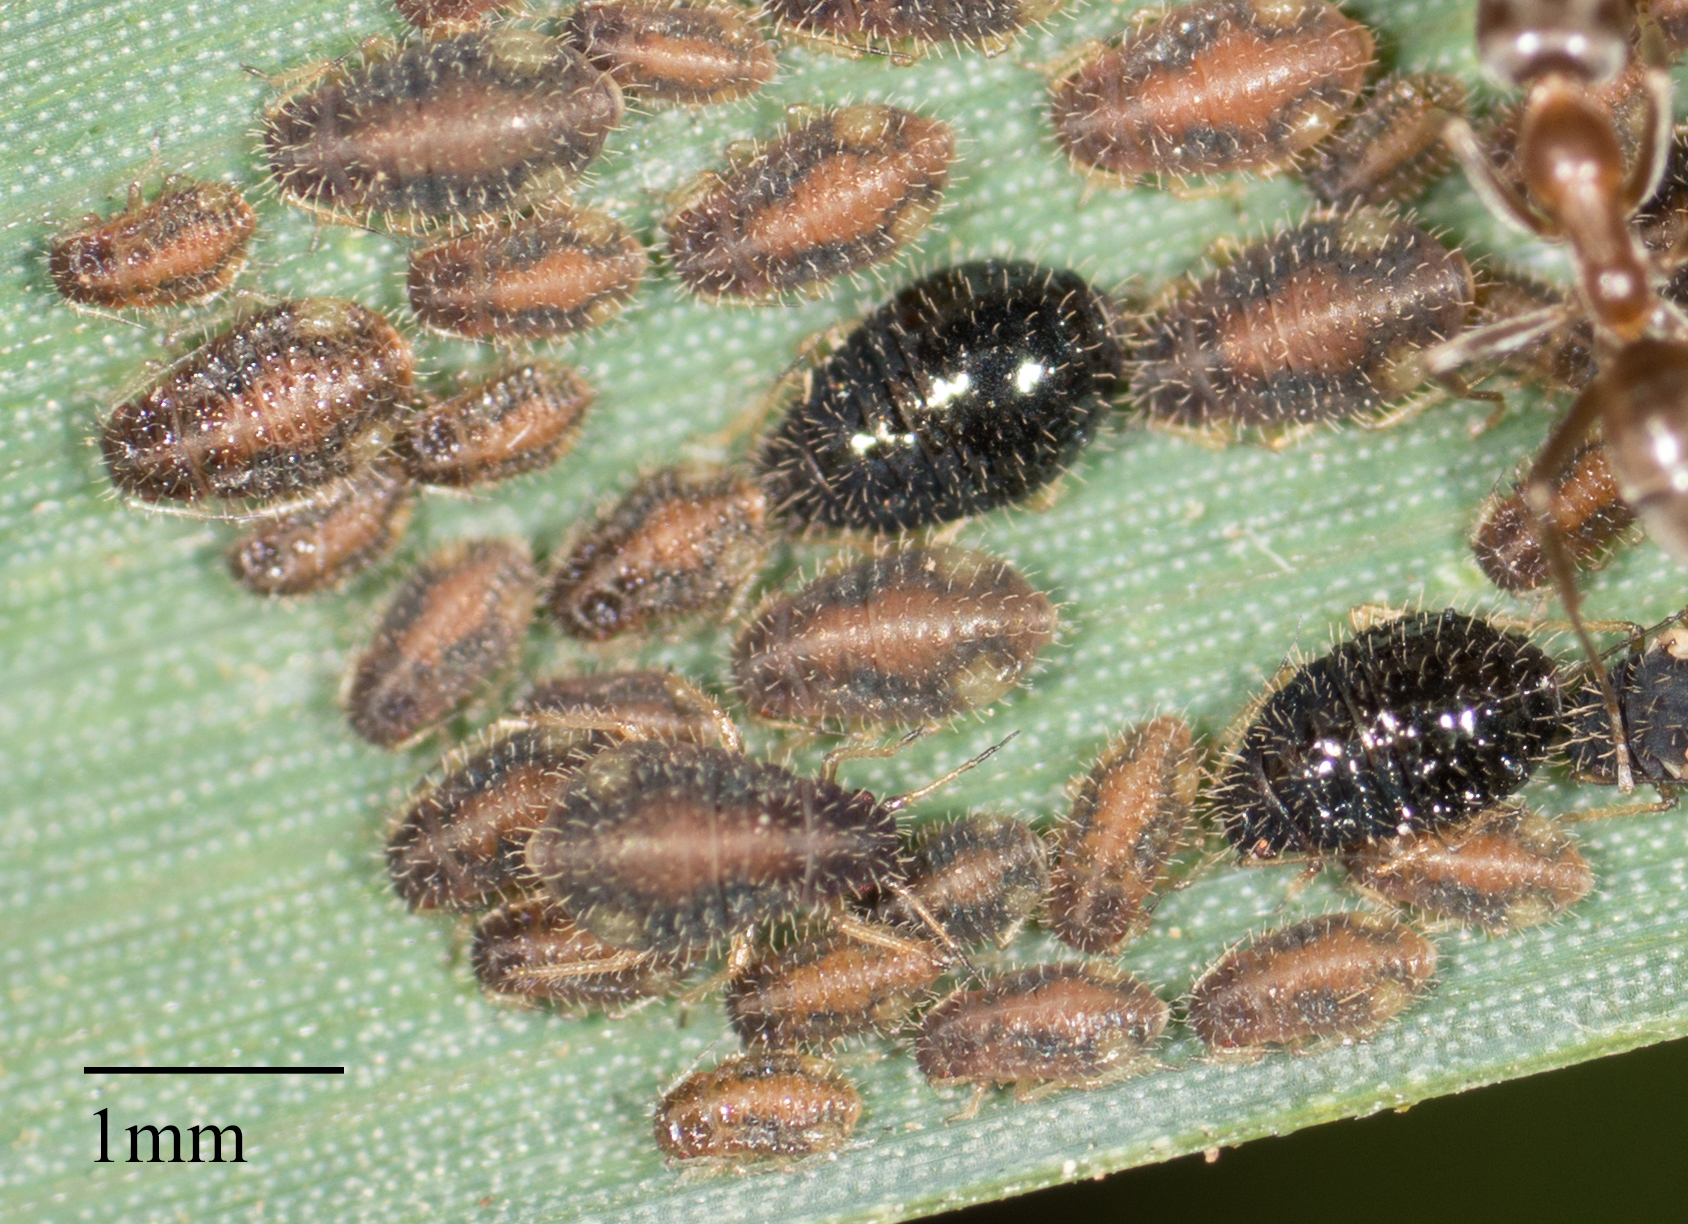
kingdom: Animalia
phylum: Arthropoda
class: Insecta
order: Hemiptera
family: Aphididae
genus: Sipha
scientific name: Sipha maydis
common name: Aphid
